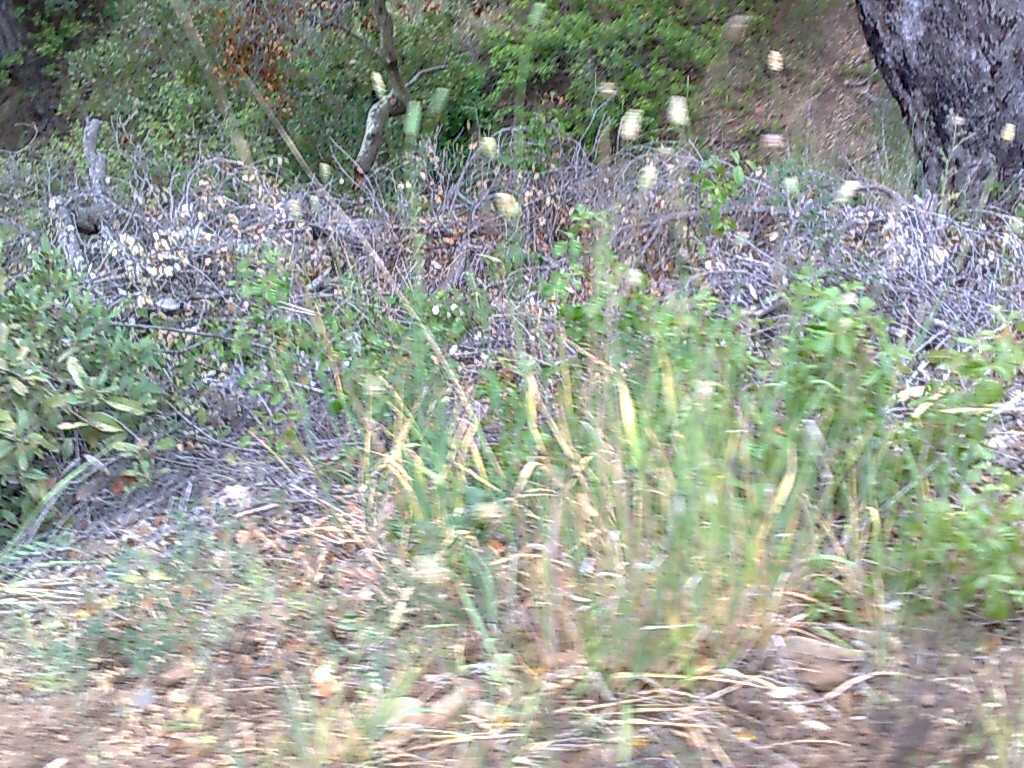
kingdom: Plantae
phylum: Tracheophyta
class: Liliopsida
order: Poales
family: Poaceae
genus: Phalaris
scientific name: Phalaris aquatica
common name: Bulbous canary-grass
